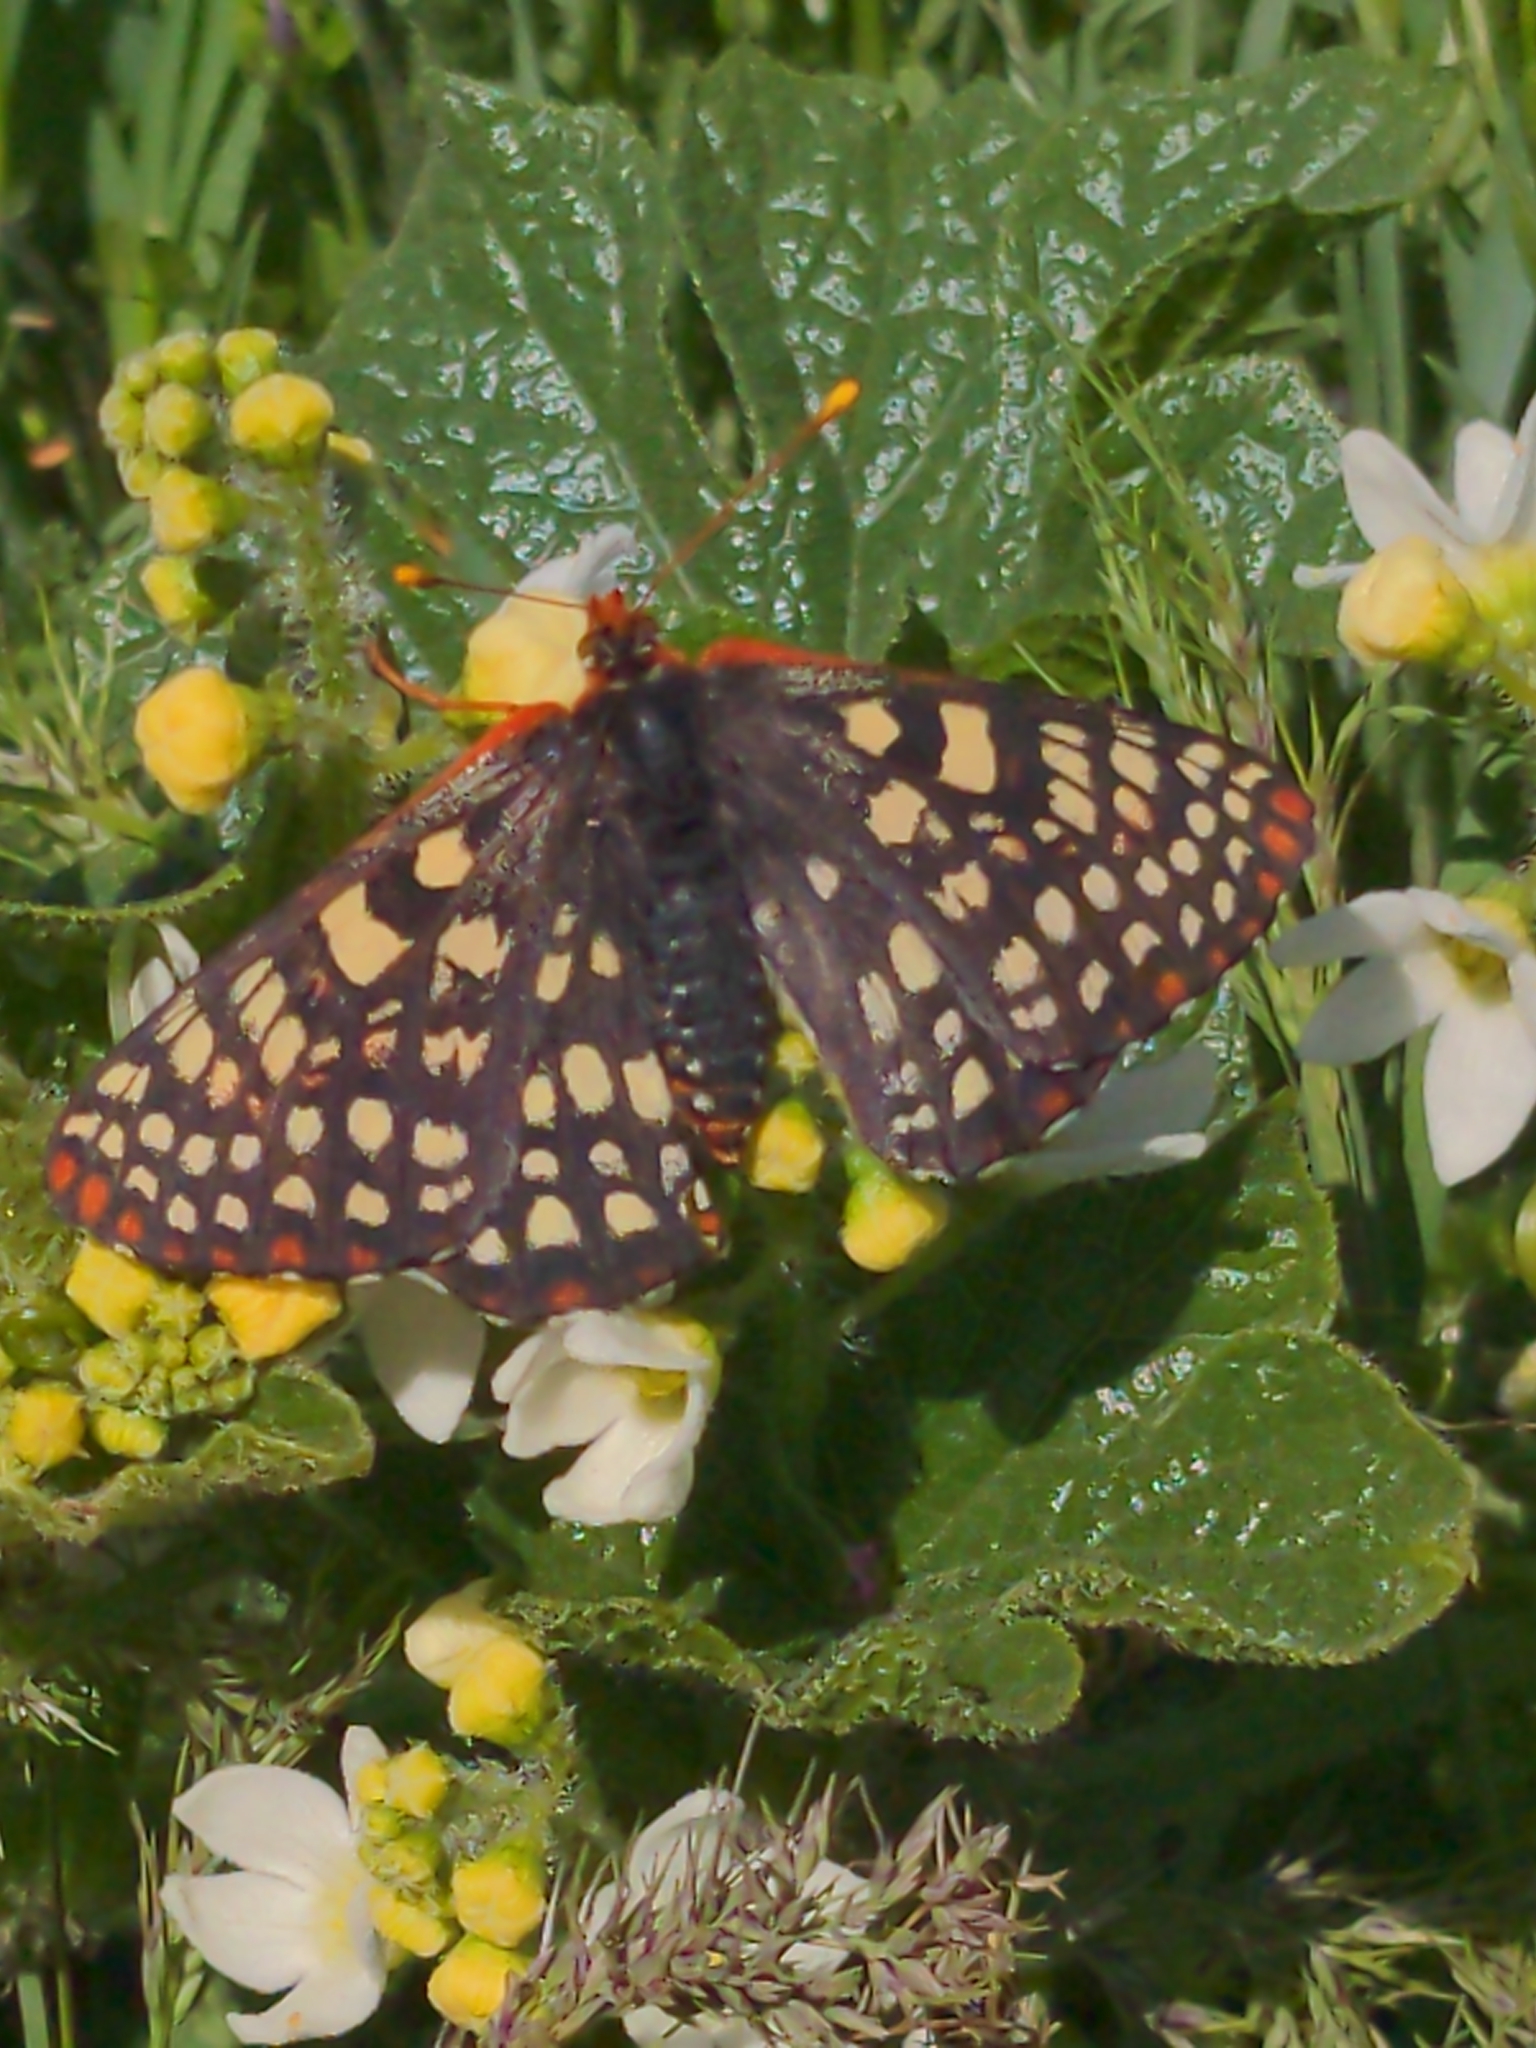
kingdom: Animalia
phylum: Arthropoda
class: Insecta
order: Lepidoptera
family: Nymphalidae
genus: Occidryas
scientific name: Occidryas chalcedona
